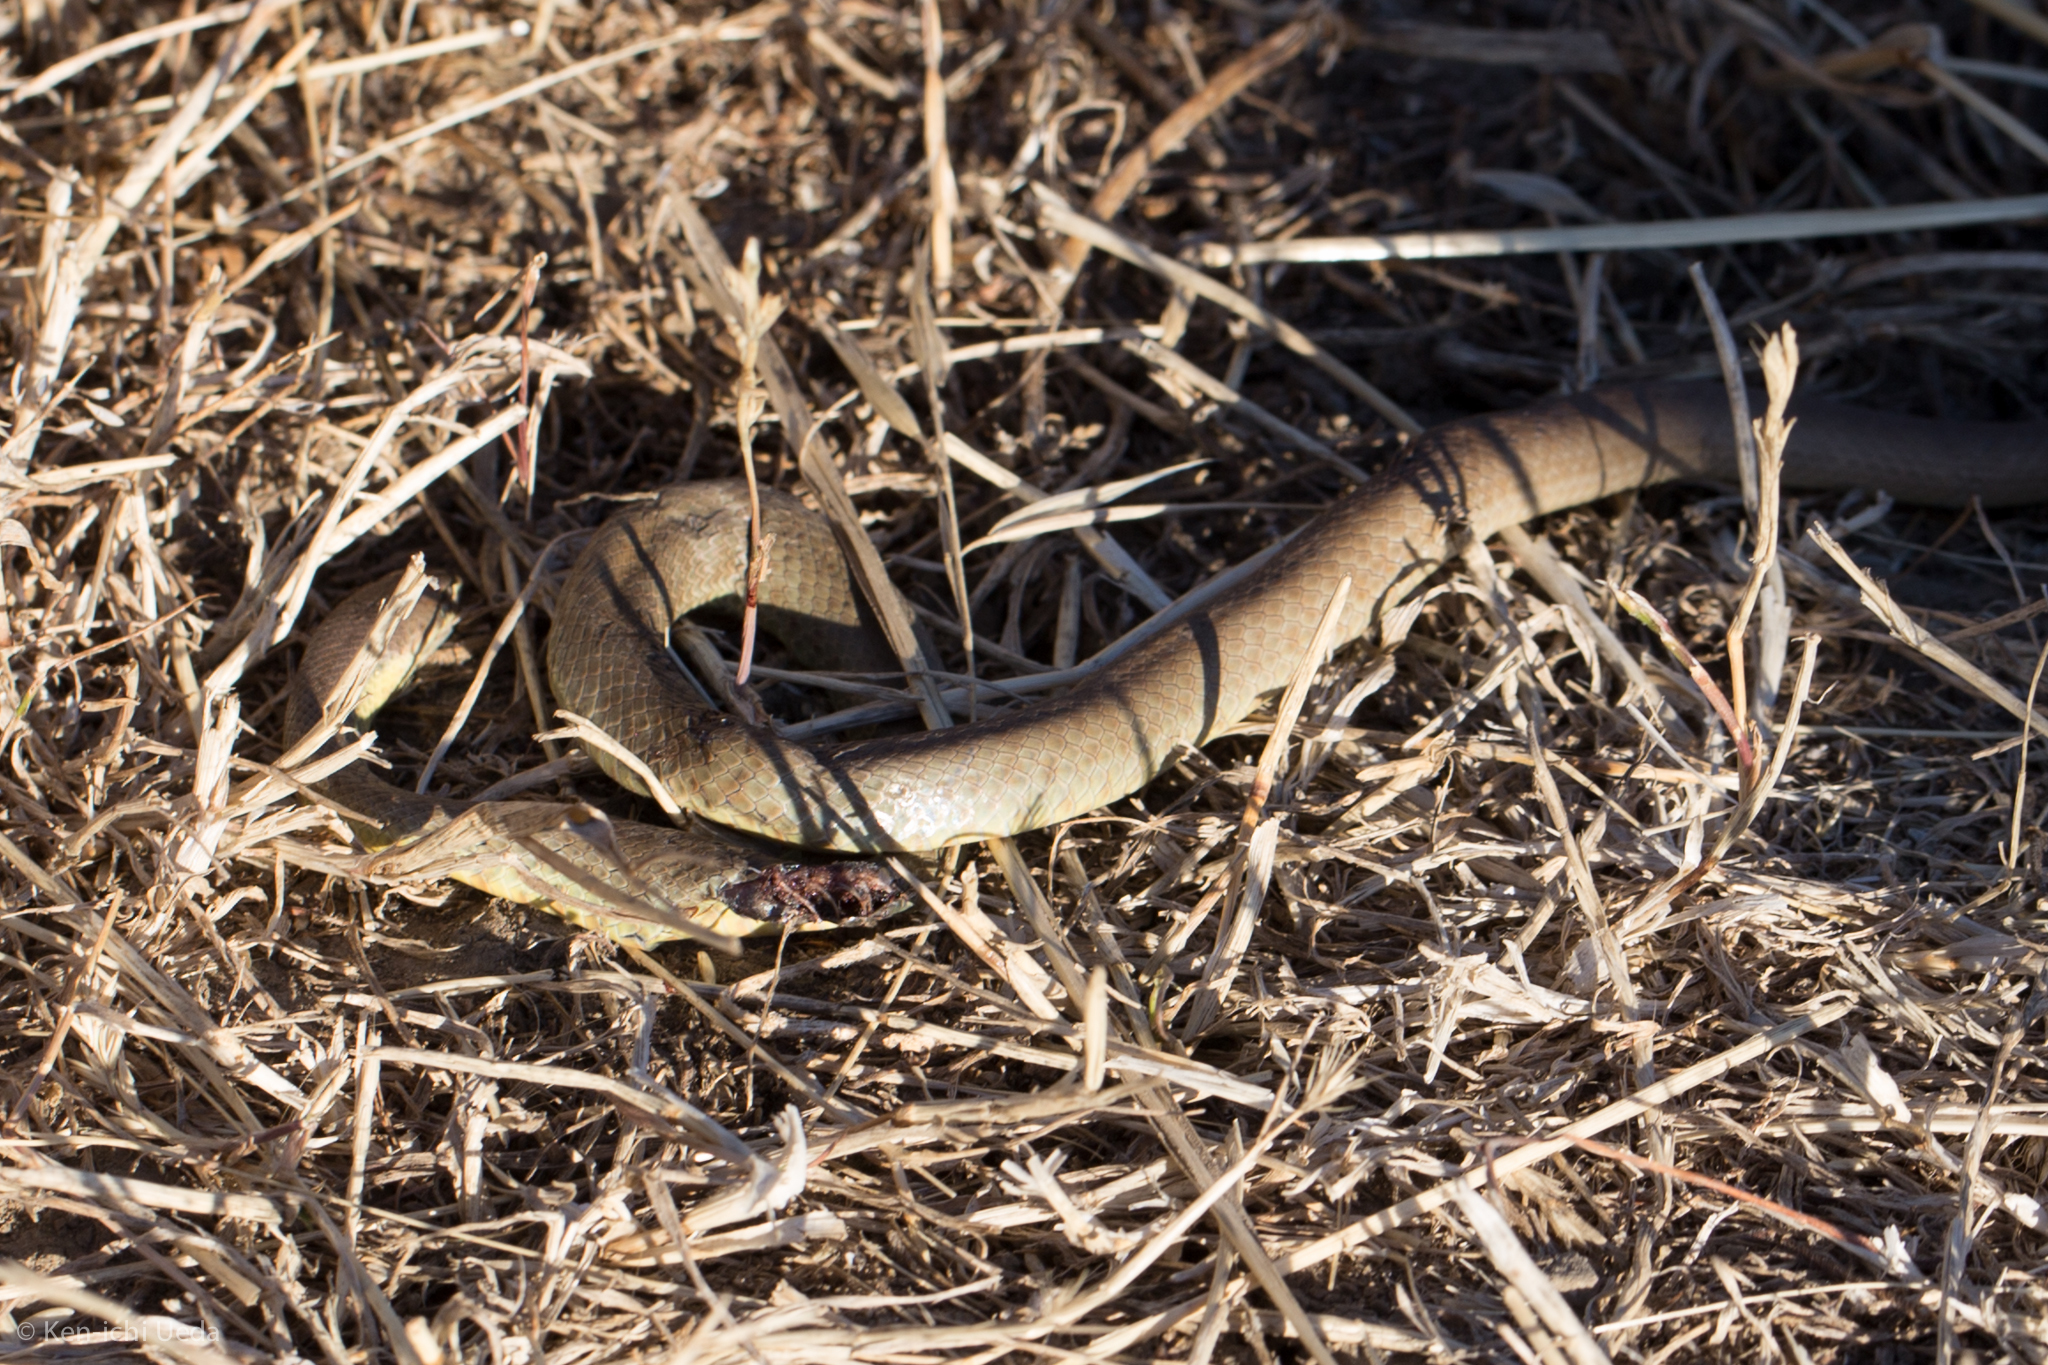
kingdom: Animalia
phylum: Chordata
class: Squamata
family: Colubridae
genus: Coluber
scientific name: Coluber constrictor
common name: Eastern racer
